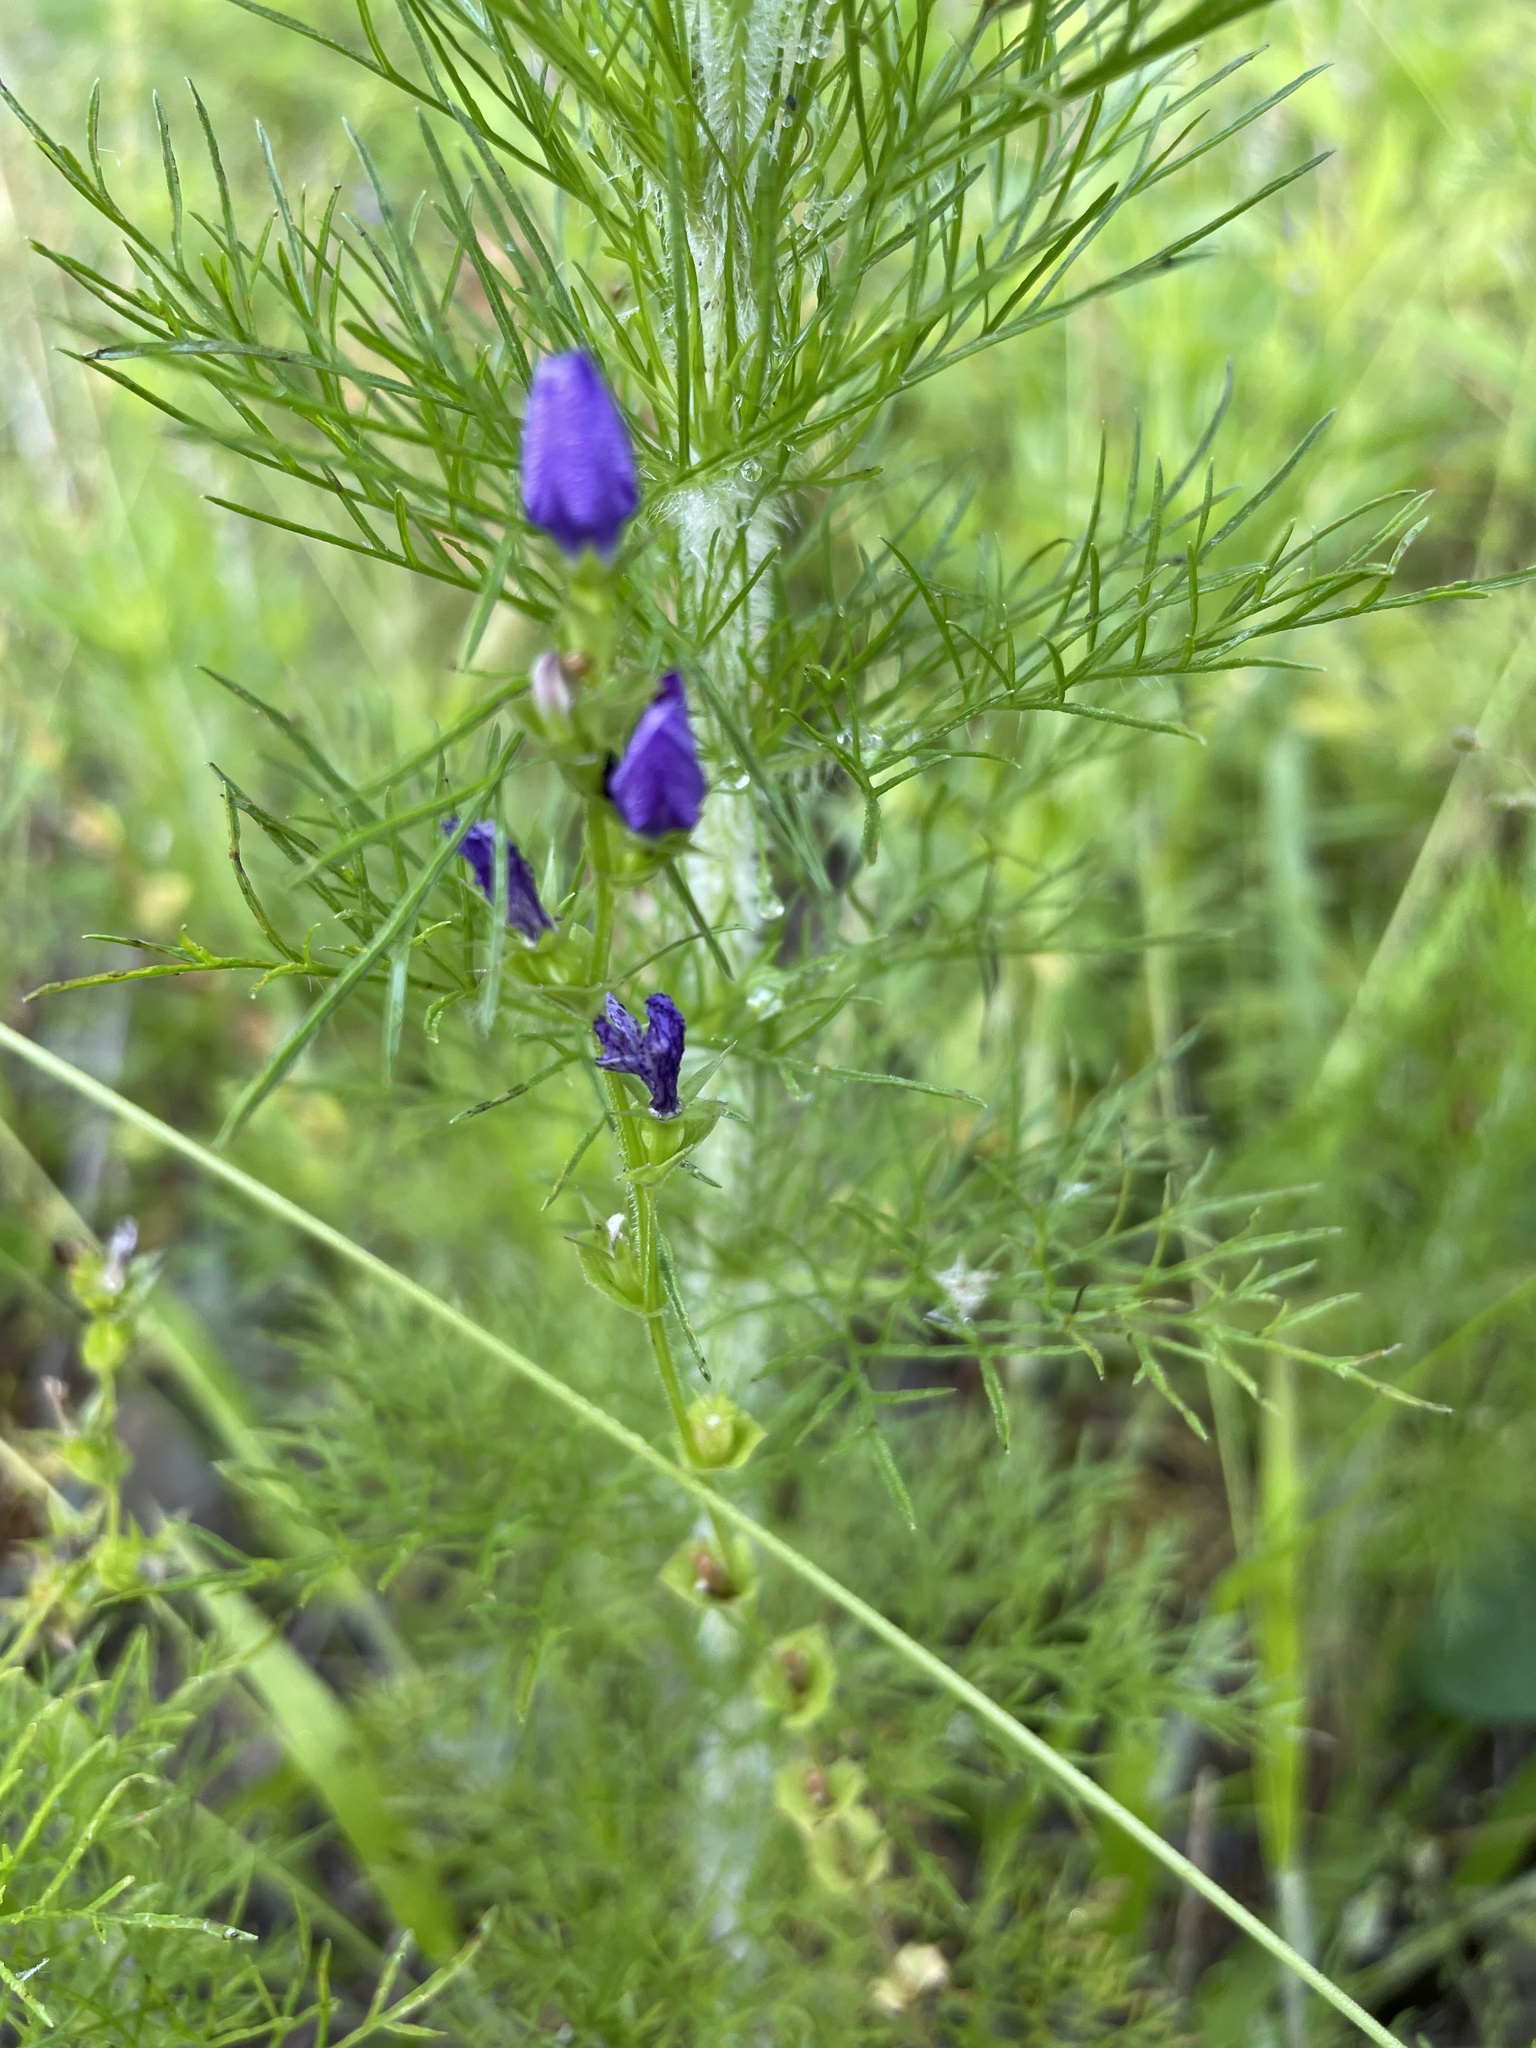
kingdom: Plantae
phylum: Tracheophyta
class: Magnoliopsida
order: Asterales
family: Campanulaceae
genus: Triodanis
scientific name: Triodanis perfoliata
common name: Clasping venus' looking-glass
